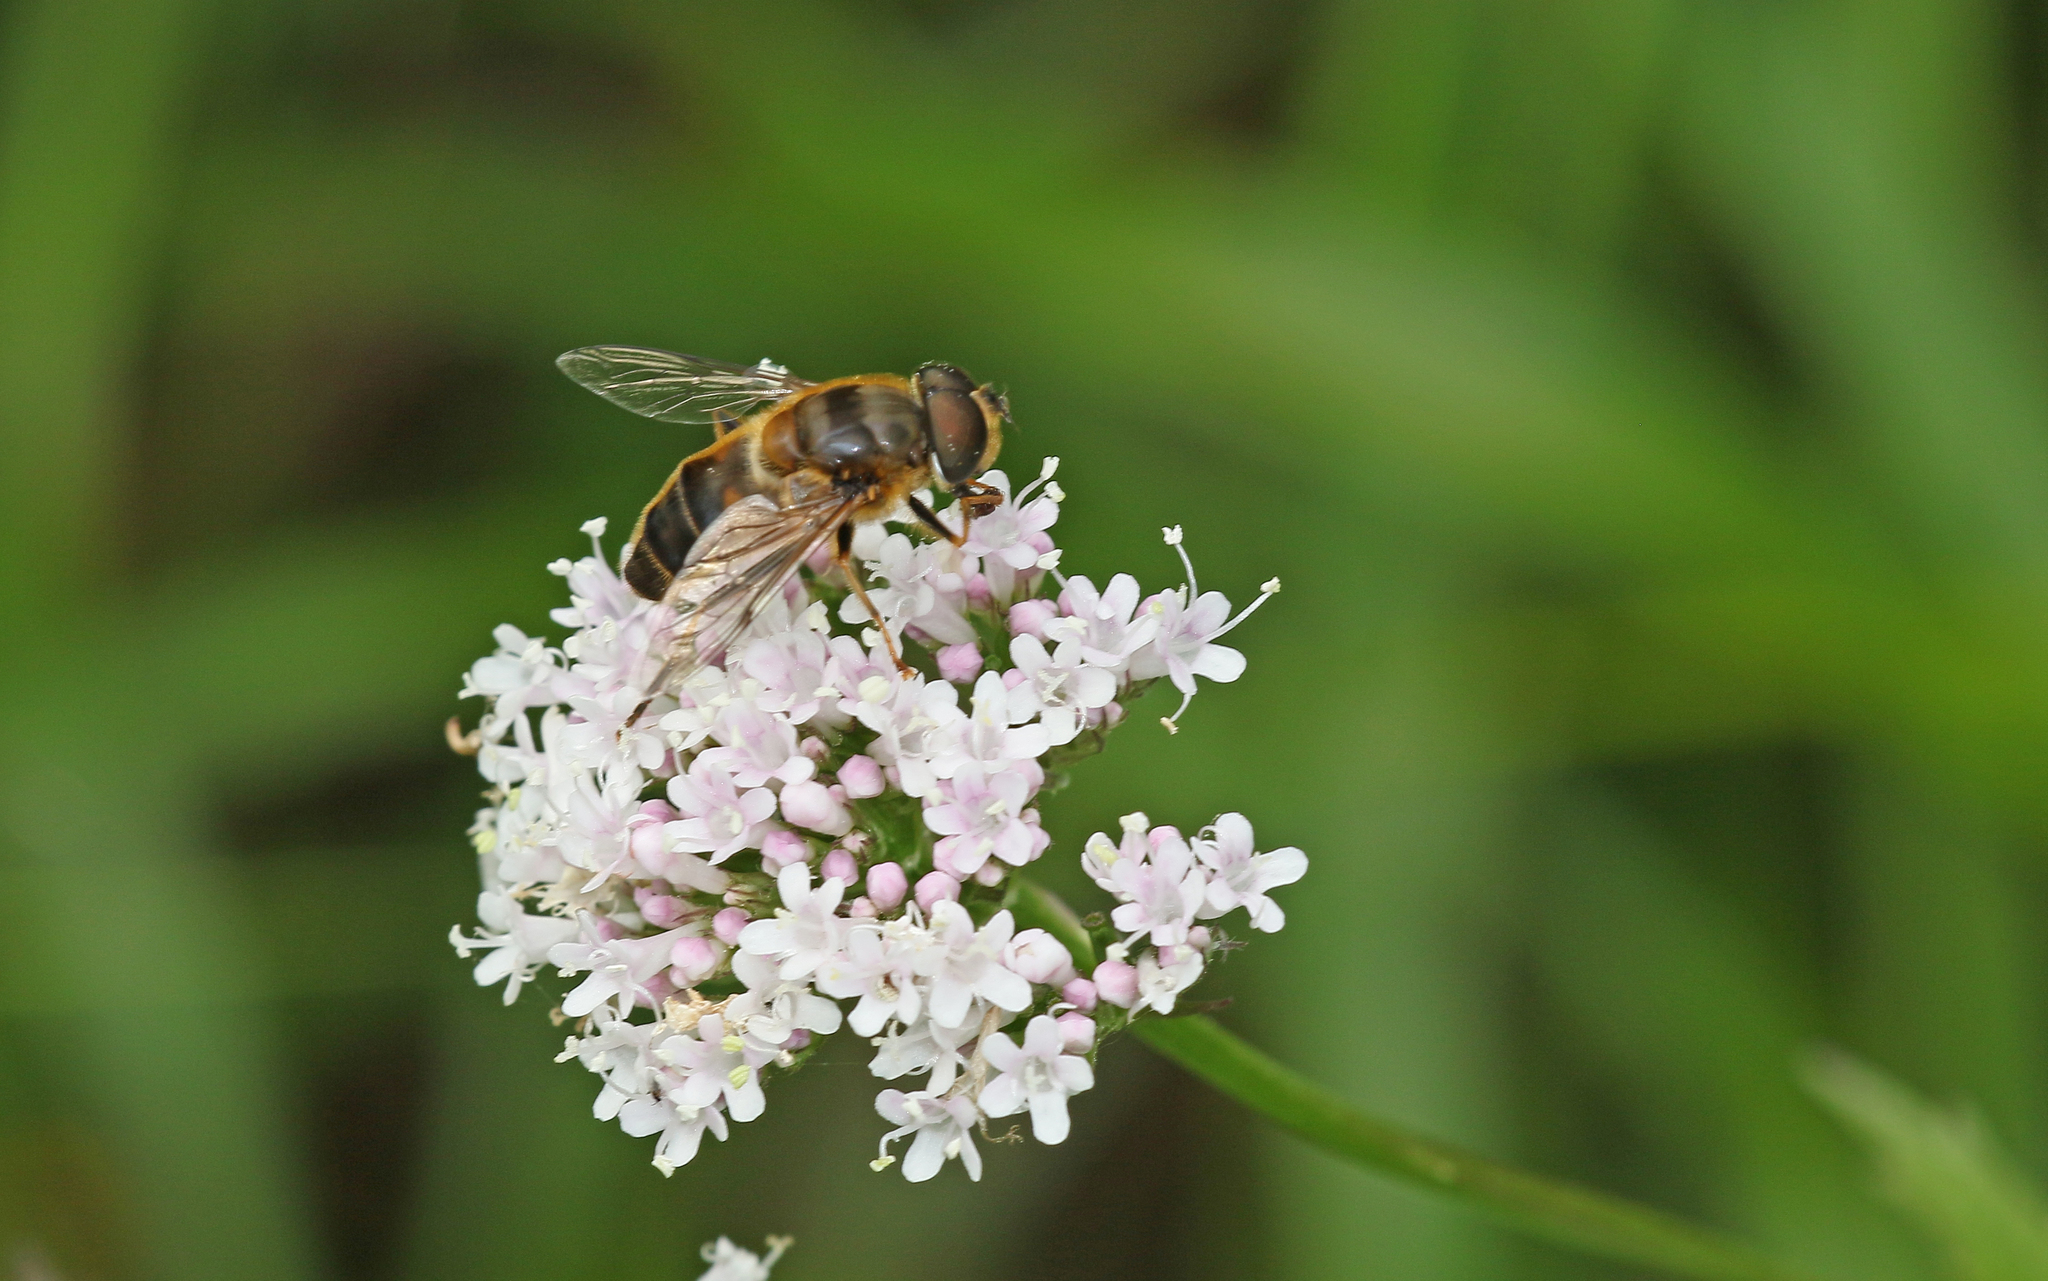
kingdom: Animalia
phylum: Arthropoda
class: Insecta
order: Diptera
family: Syrphidae
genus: Eristalis
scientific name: Eristalis pertinax
